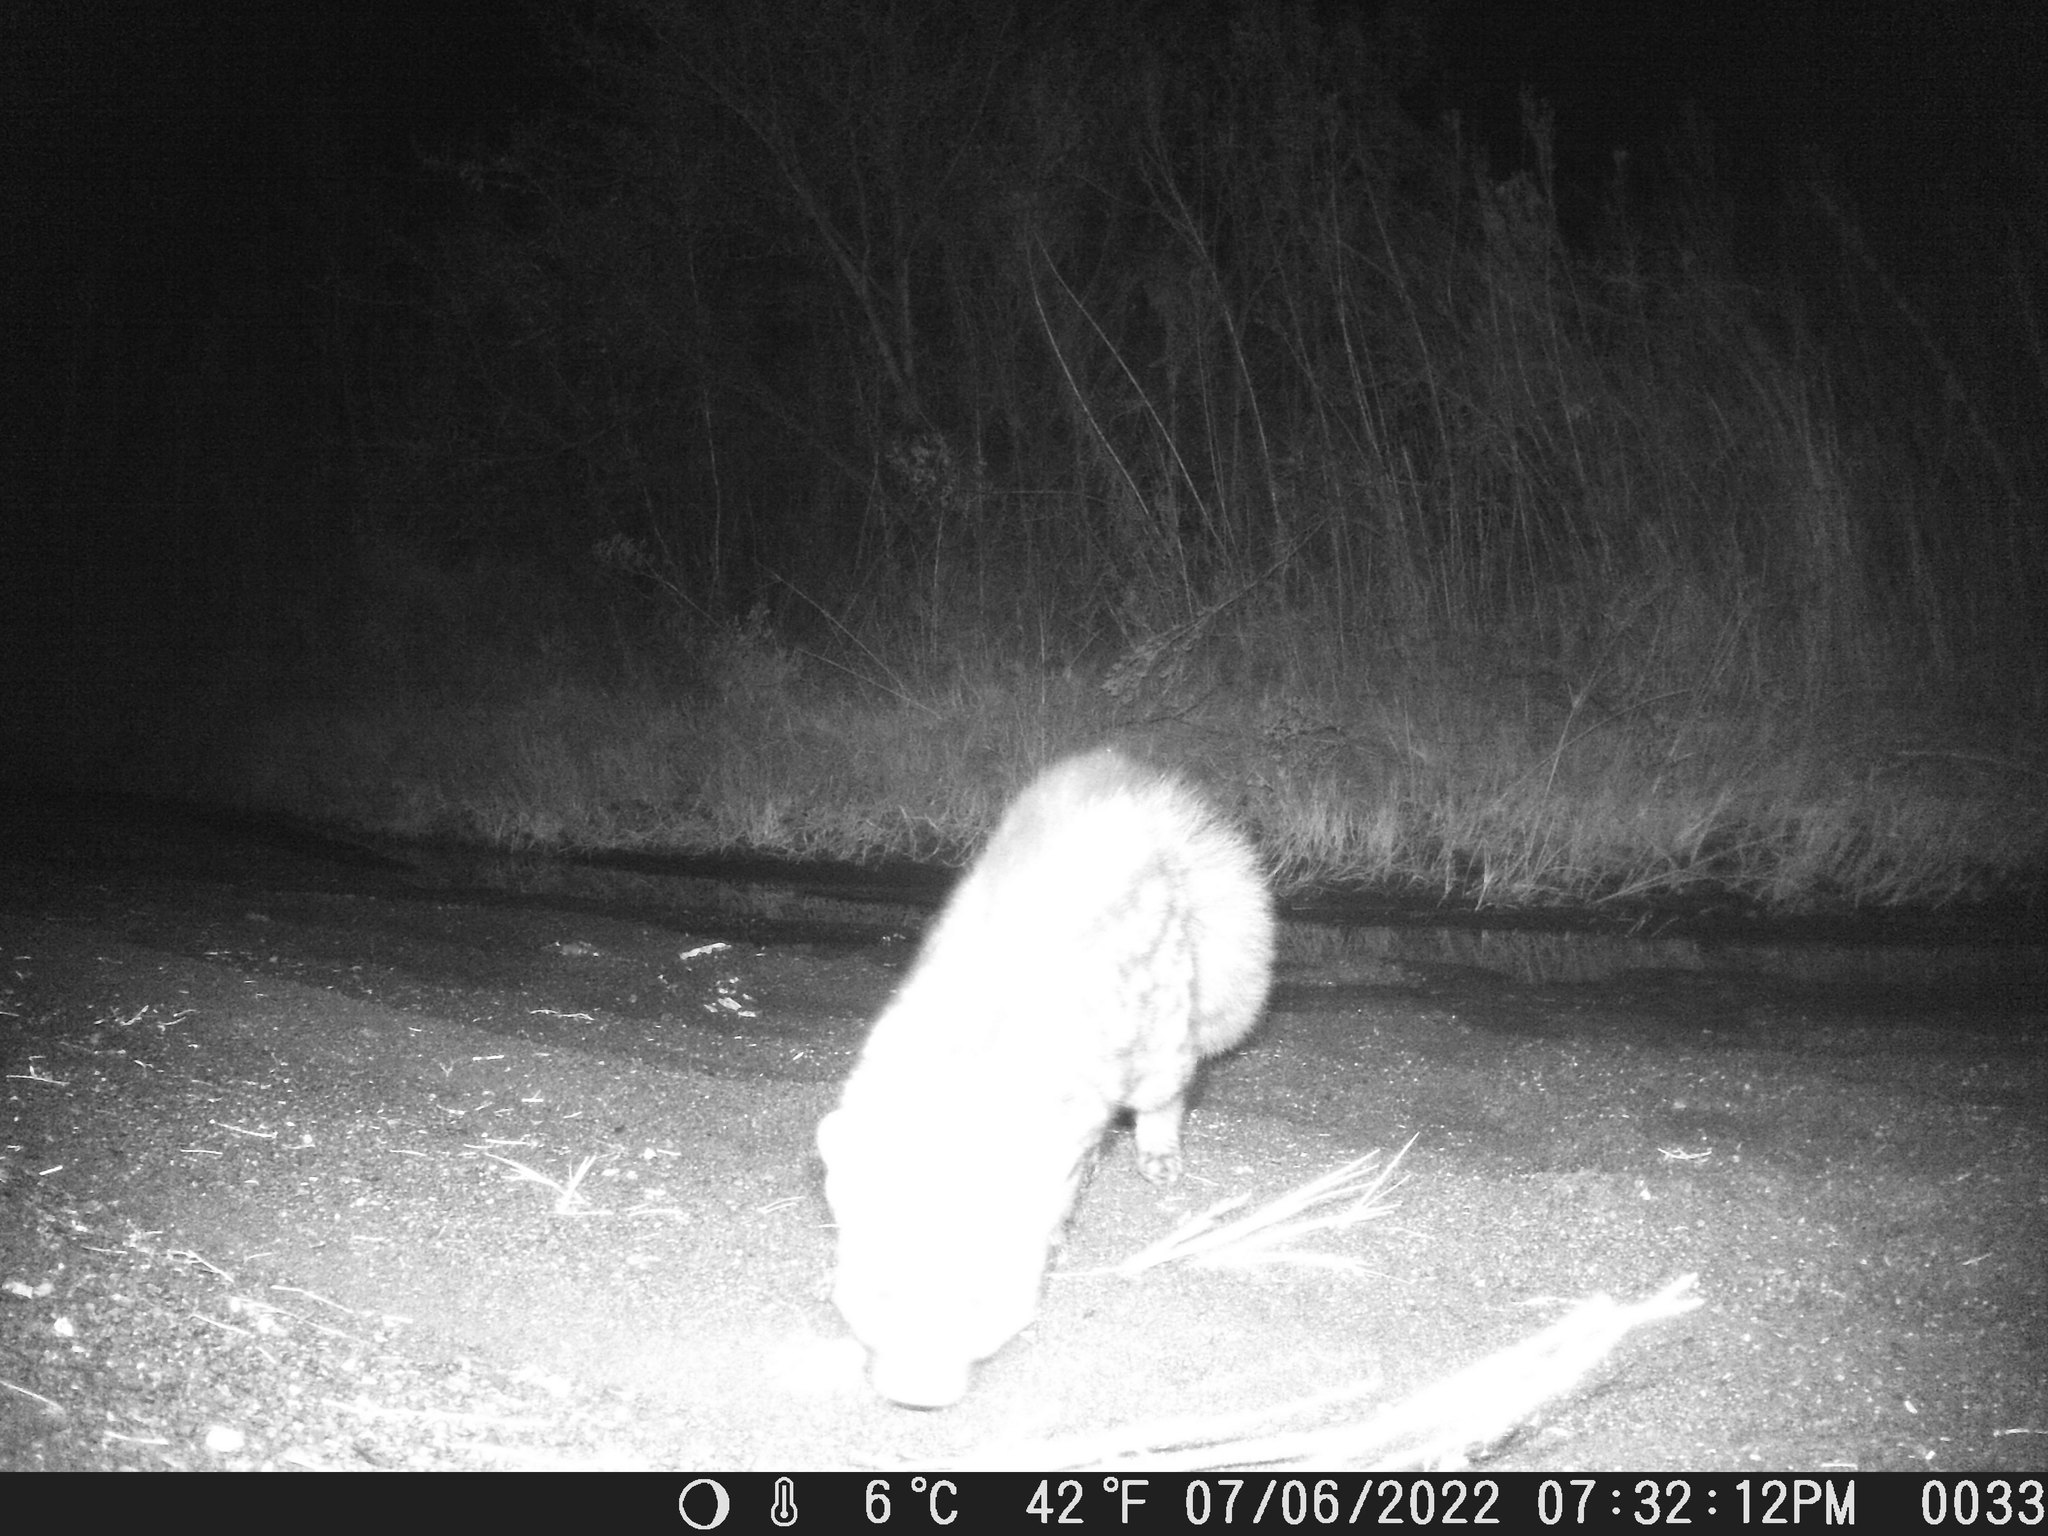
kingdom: Animalia
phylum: Chordata
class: Mammalia
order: Carnivora
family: Viverridae
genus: Genetta
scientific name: Genetta genetta
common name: Common genet
